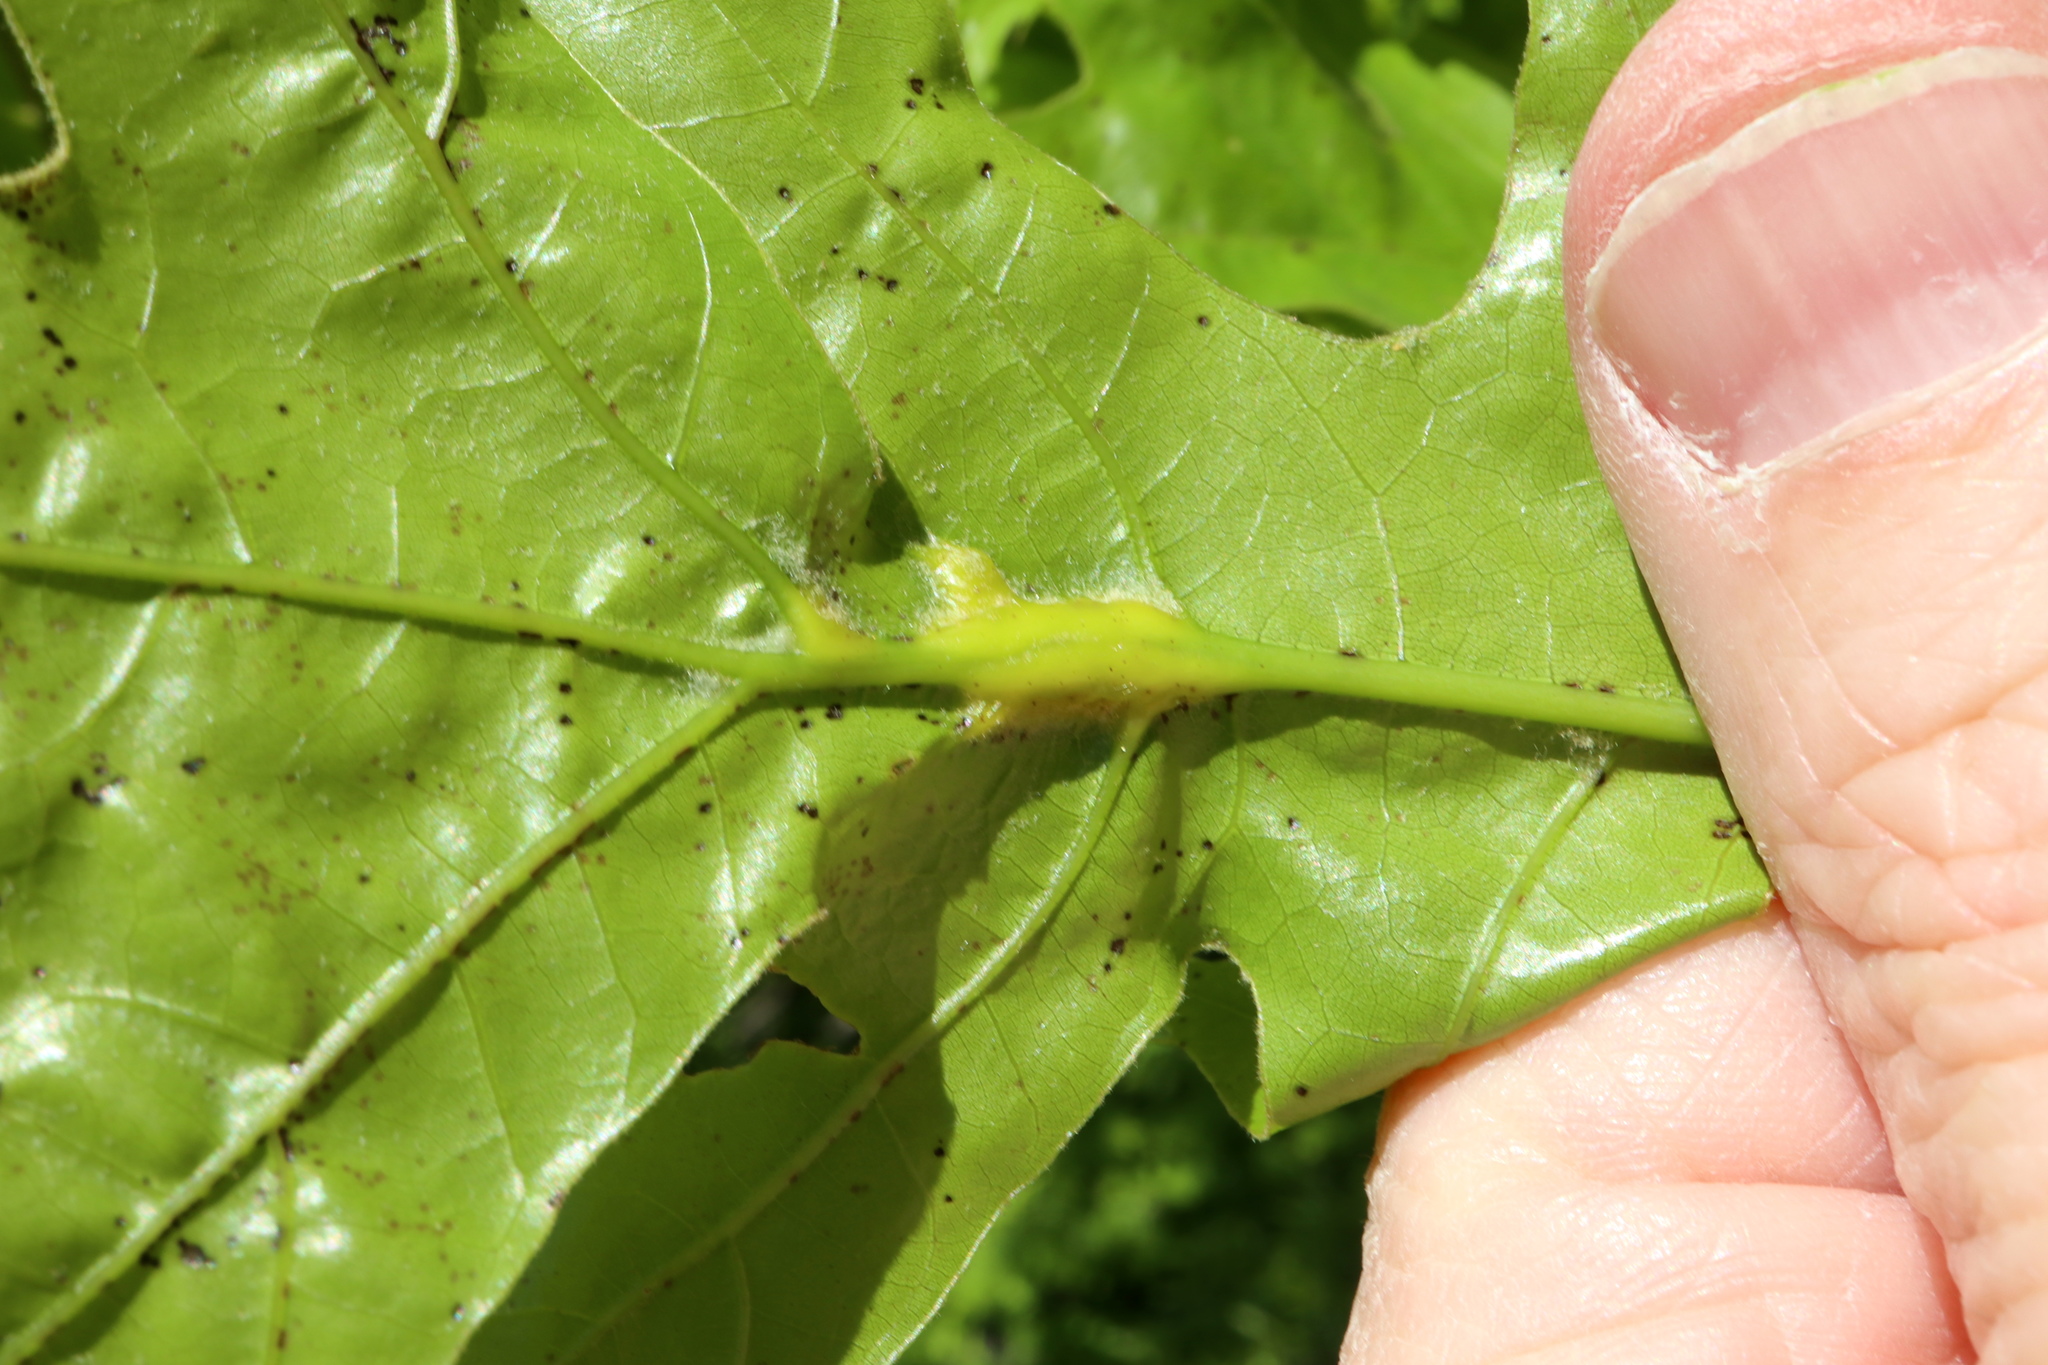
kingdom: Animalia
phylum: Arthropoda
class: Insecta
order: Hymenoptera
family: Cynipidae
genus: Melikaiella
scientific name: Melikaiella tumifica
